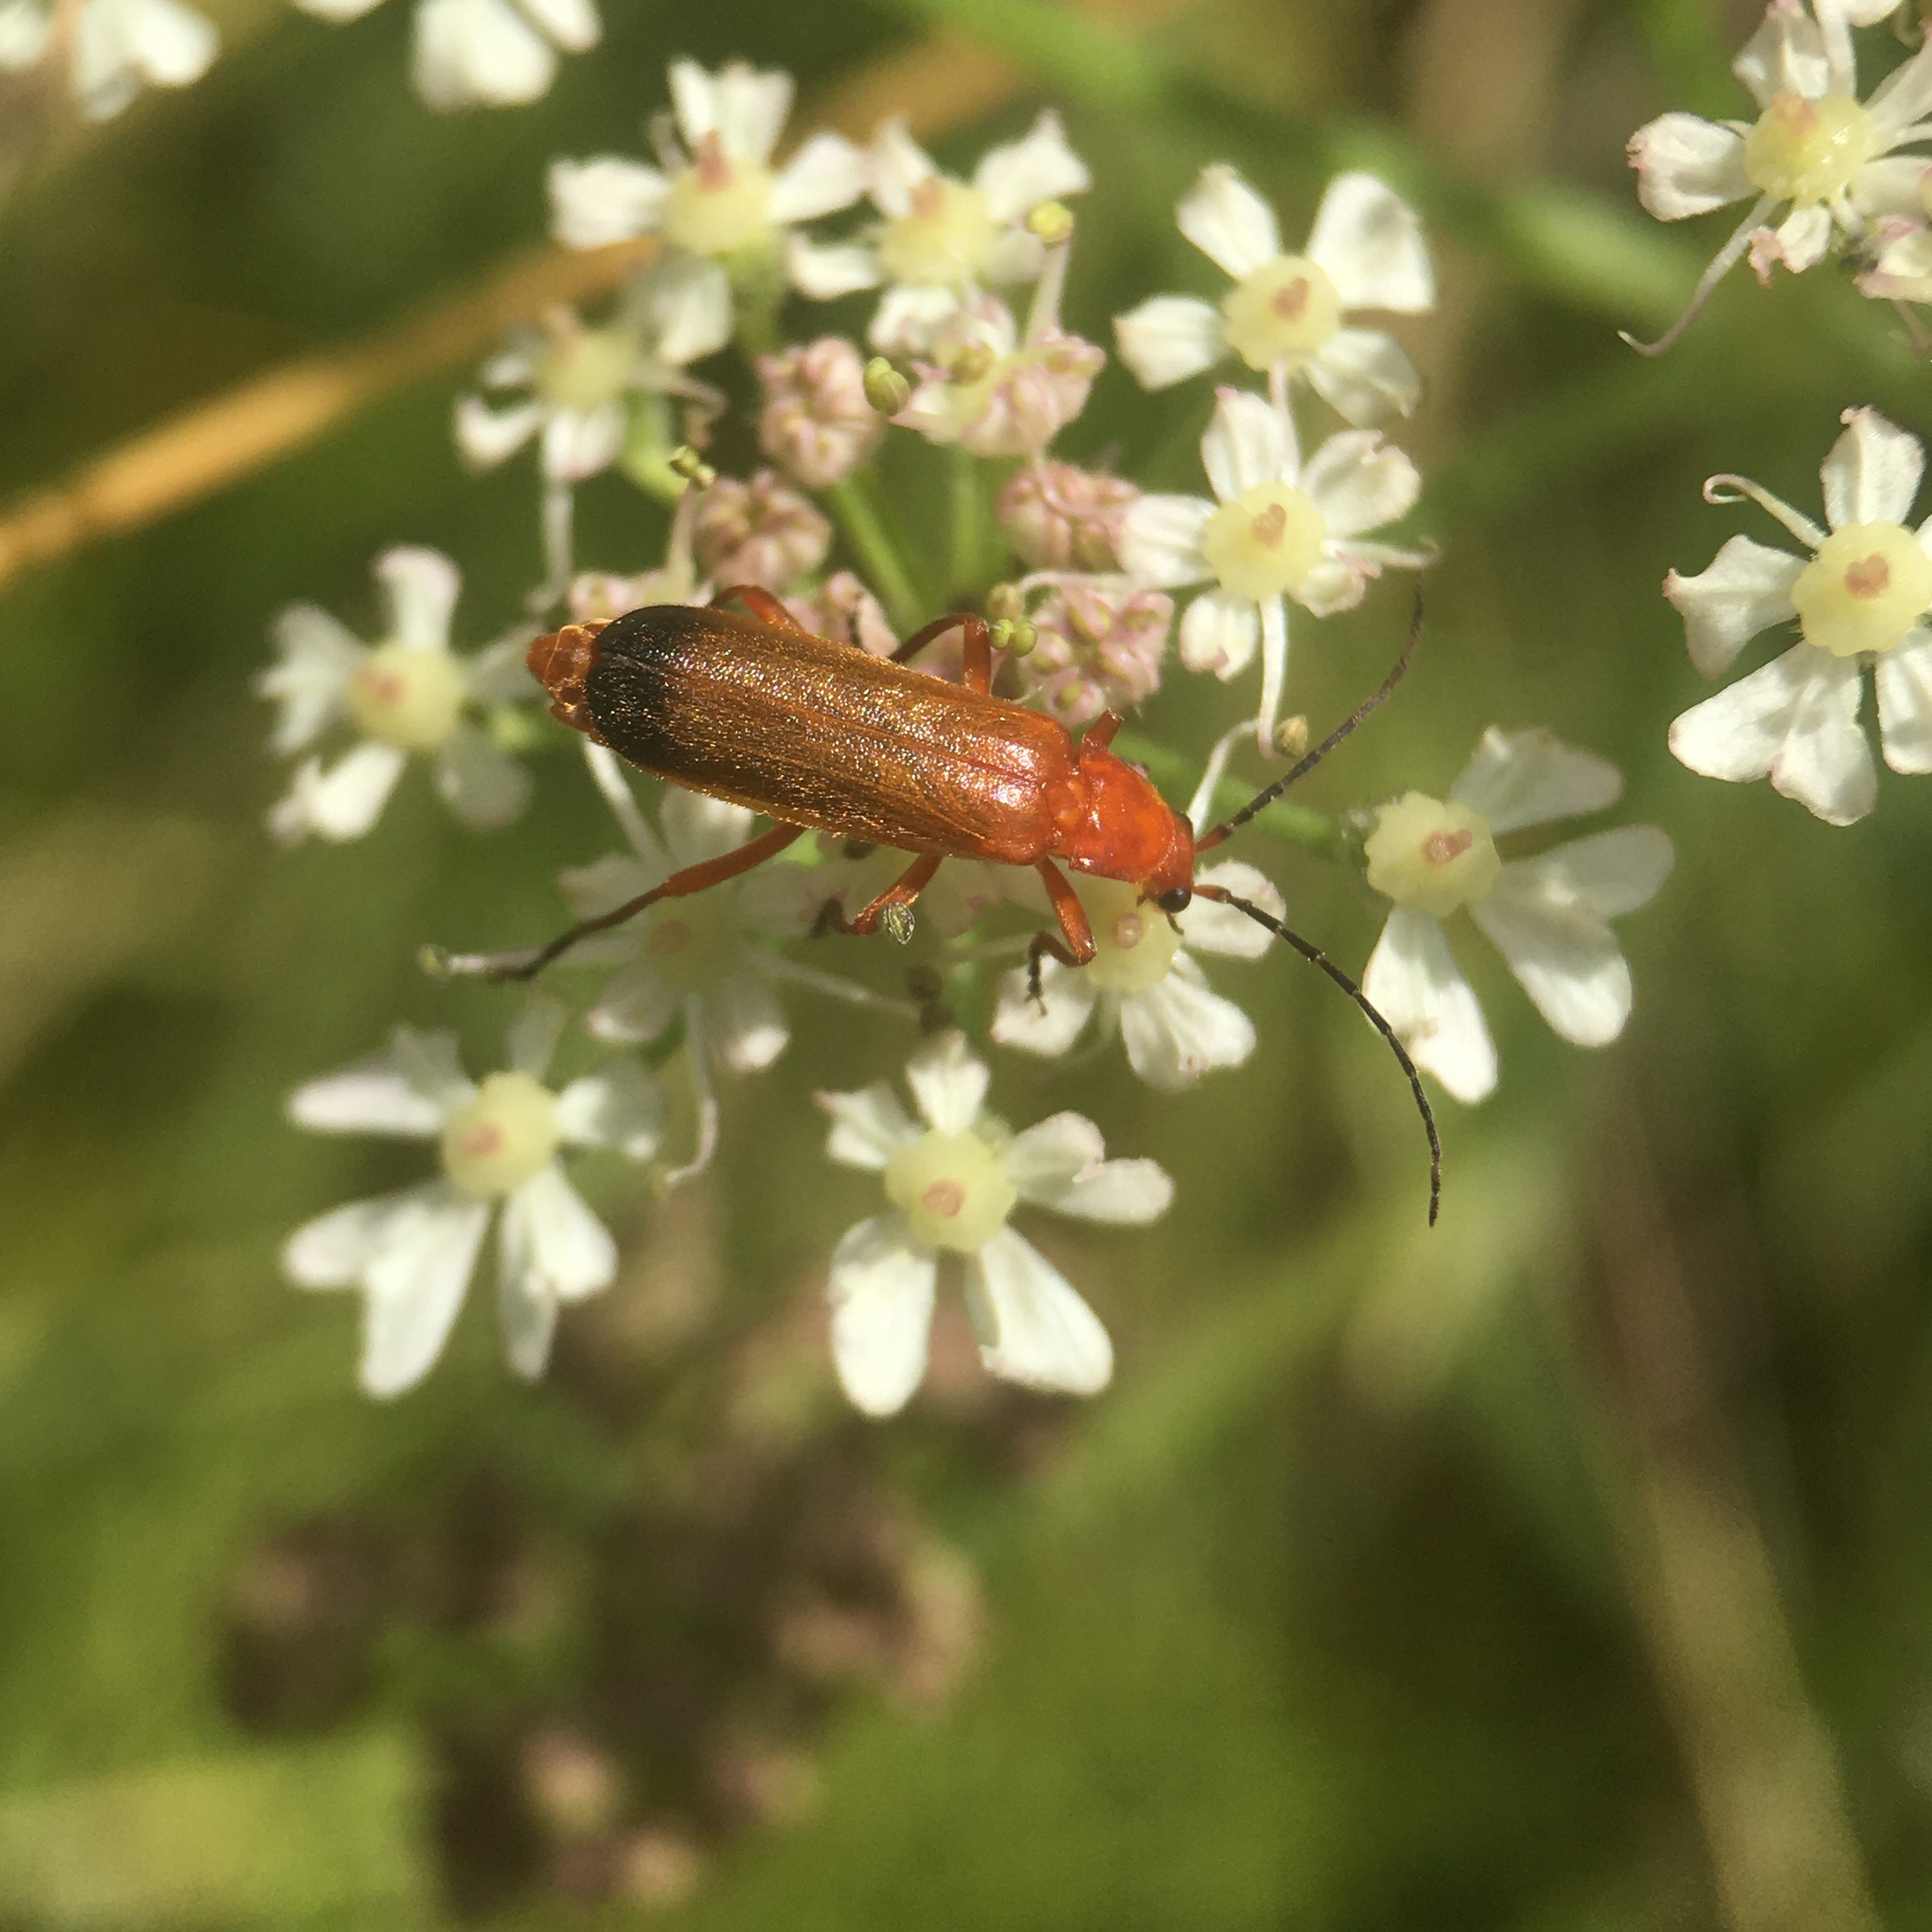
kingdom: Animalia
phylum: Arthropoda
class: Insecta
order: Coleoptera
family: Cantharidae
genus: Rhagonycha
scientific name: Rhagonycha fulva
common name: Common red soldier beetle
